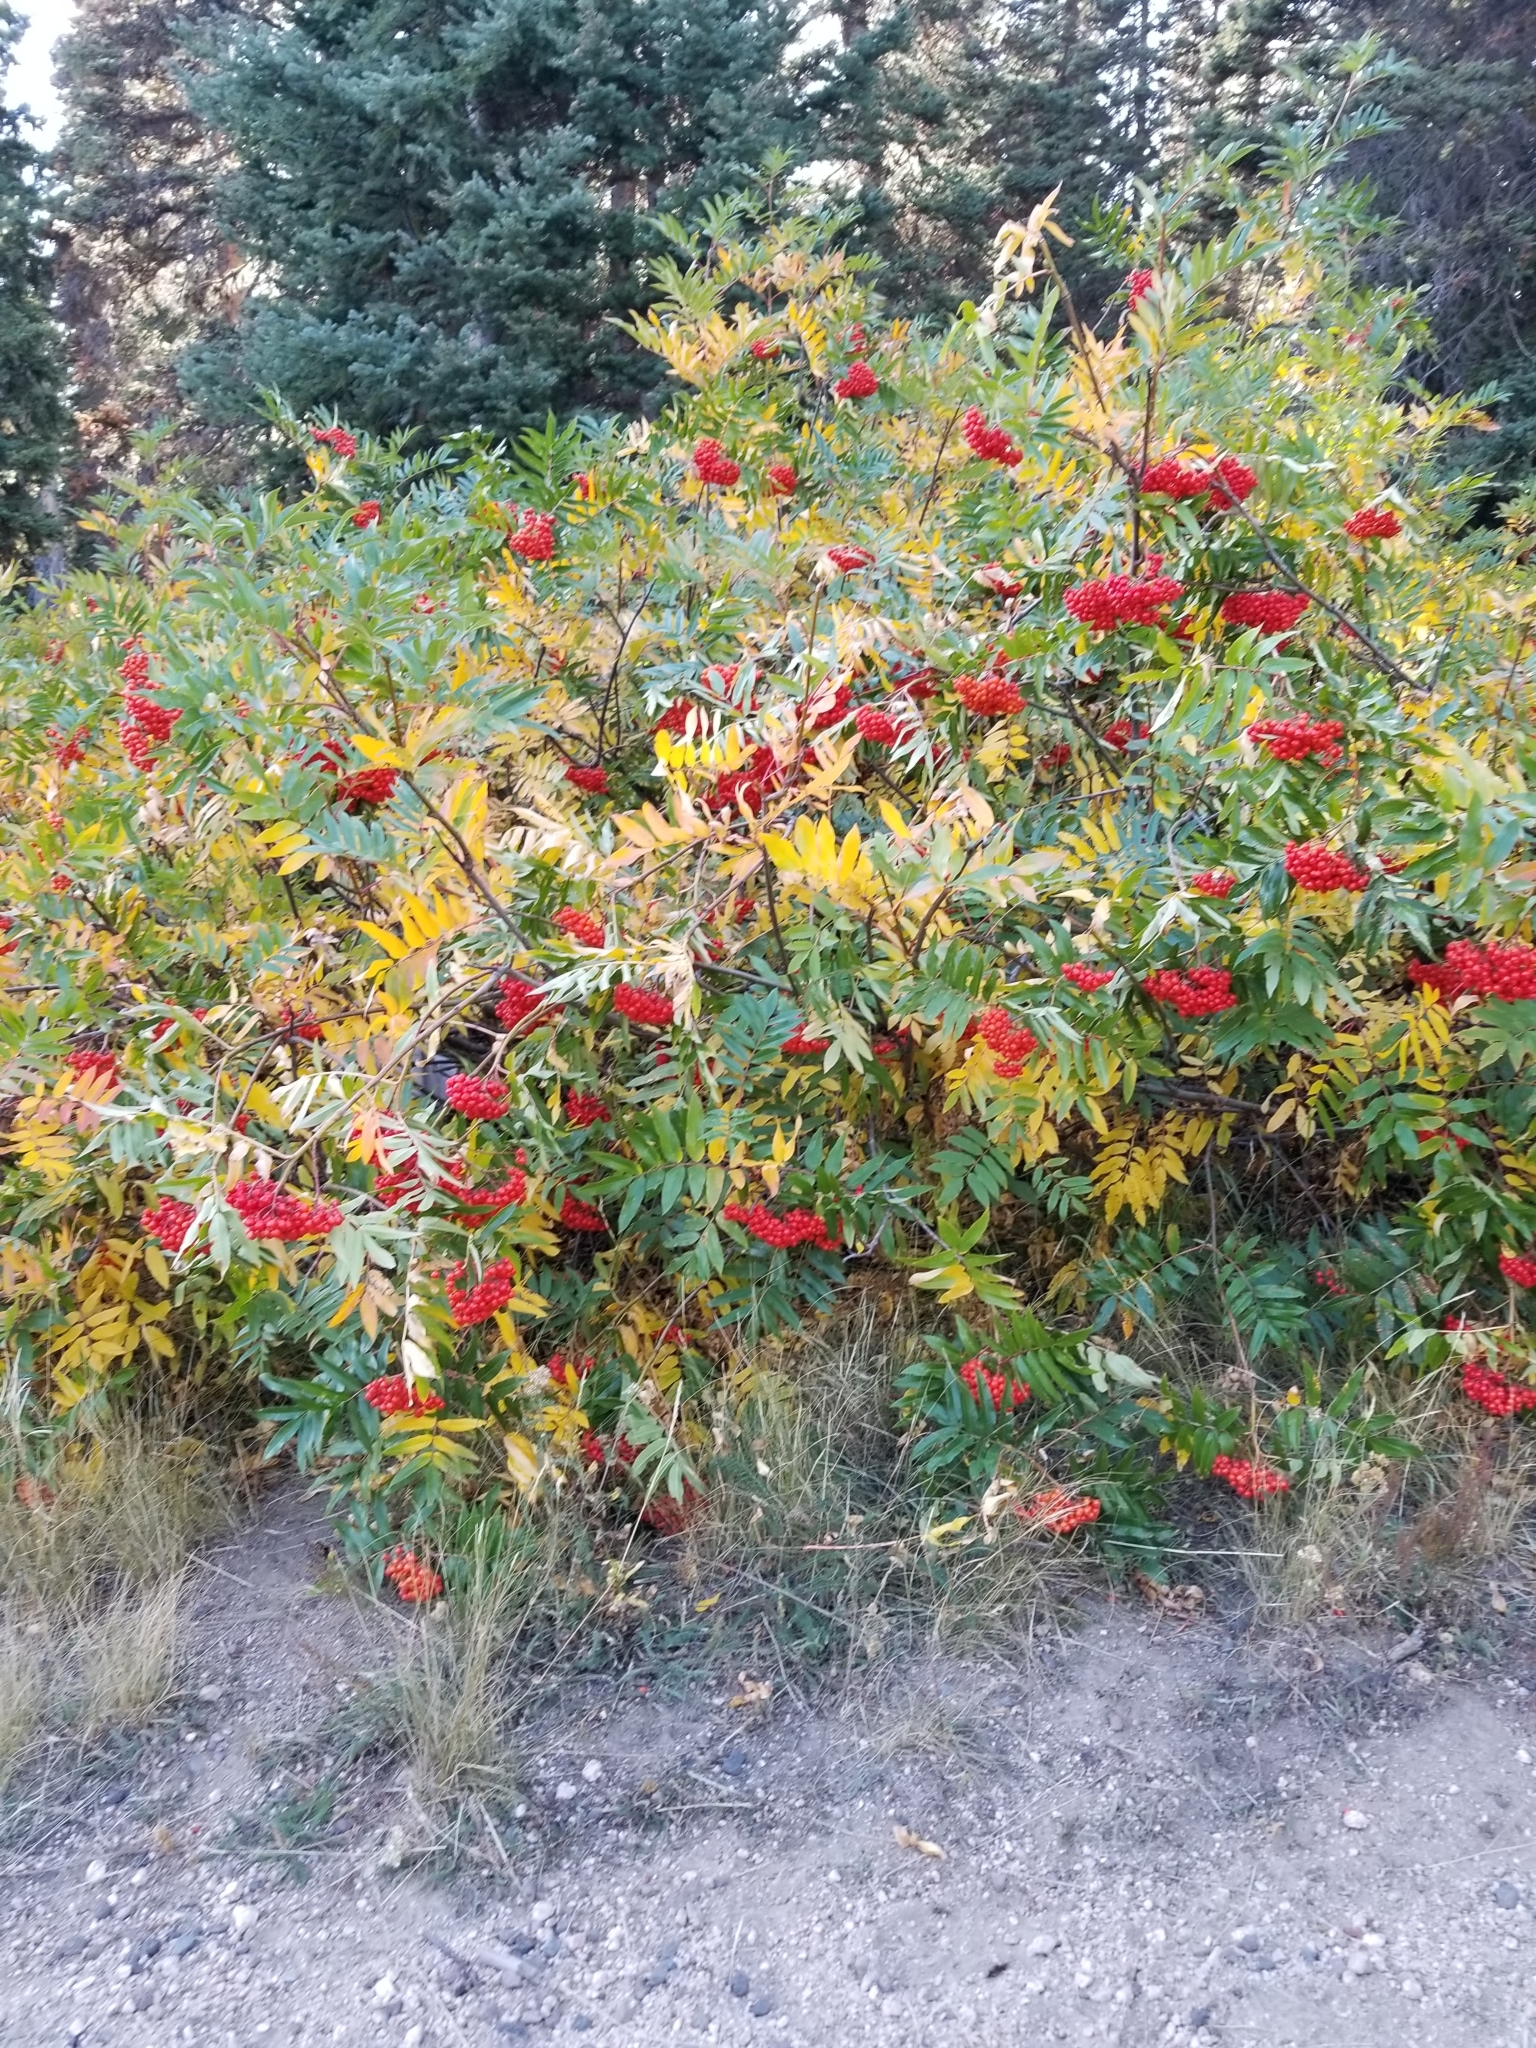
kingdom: Plantae
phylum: Tracheophyta
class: Magnoliopsida
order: Rosales
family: Rosaceae
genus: Sorbus
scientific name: Sorbus aucuparia
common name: Rowan
